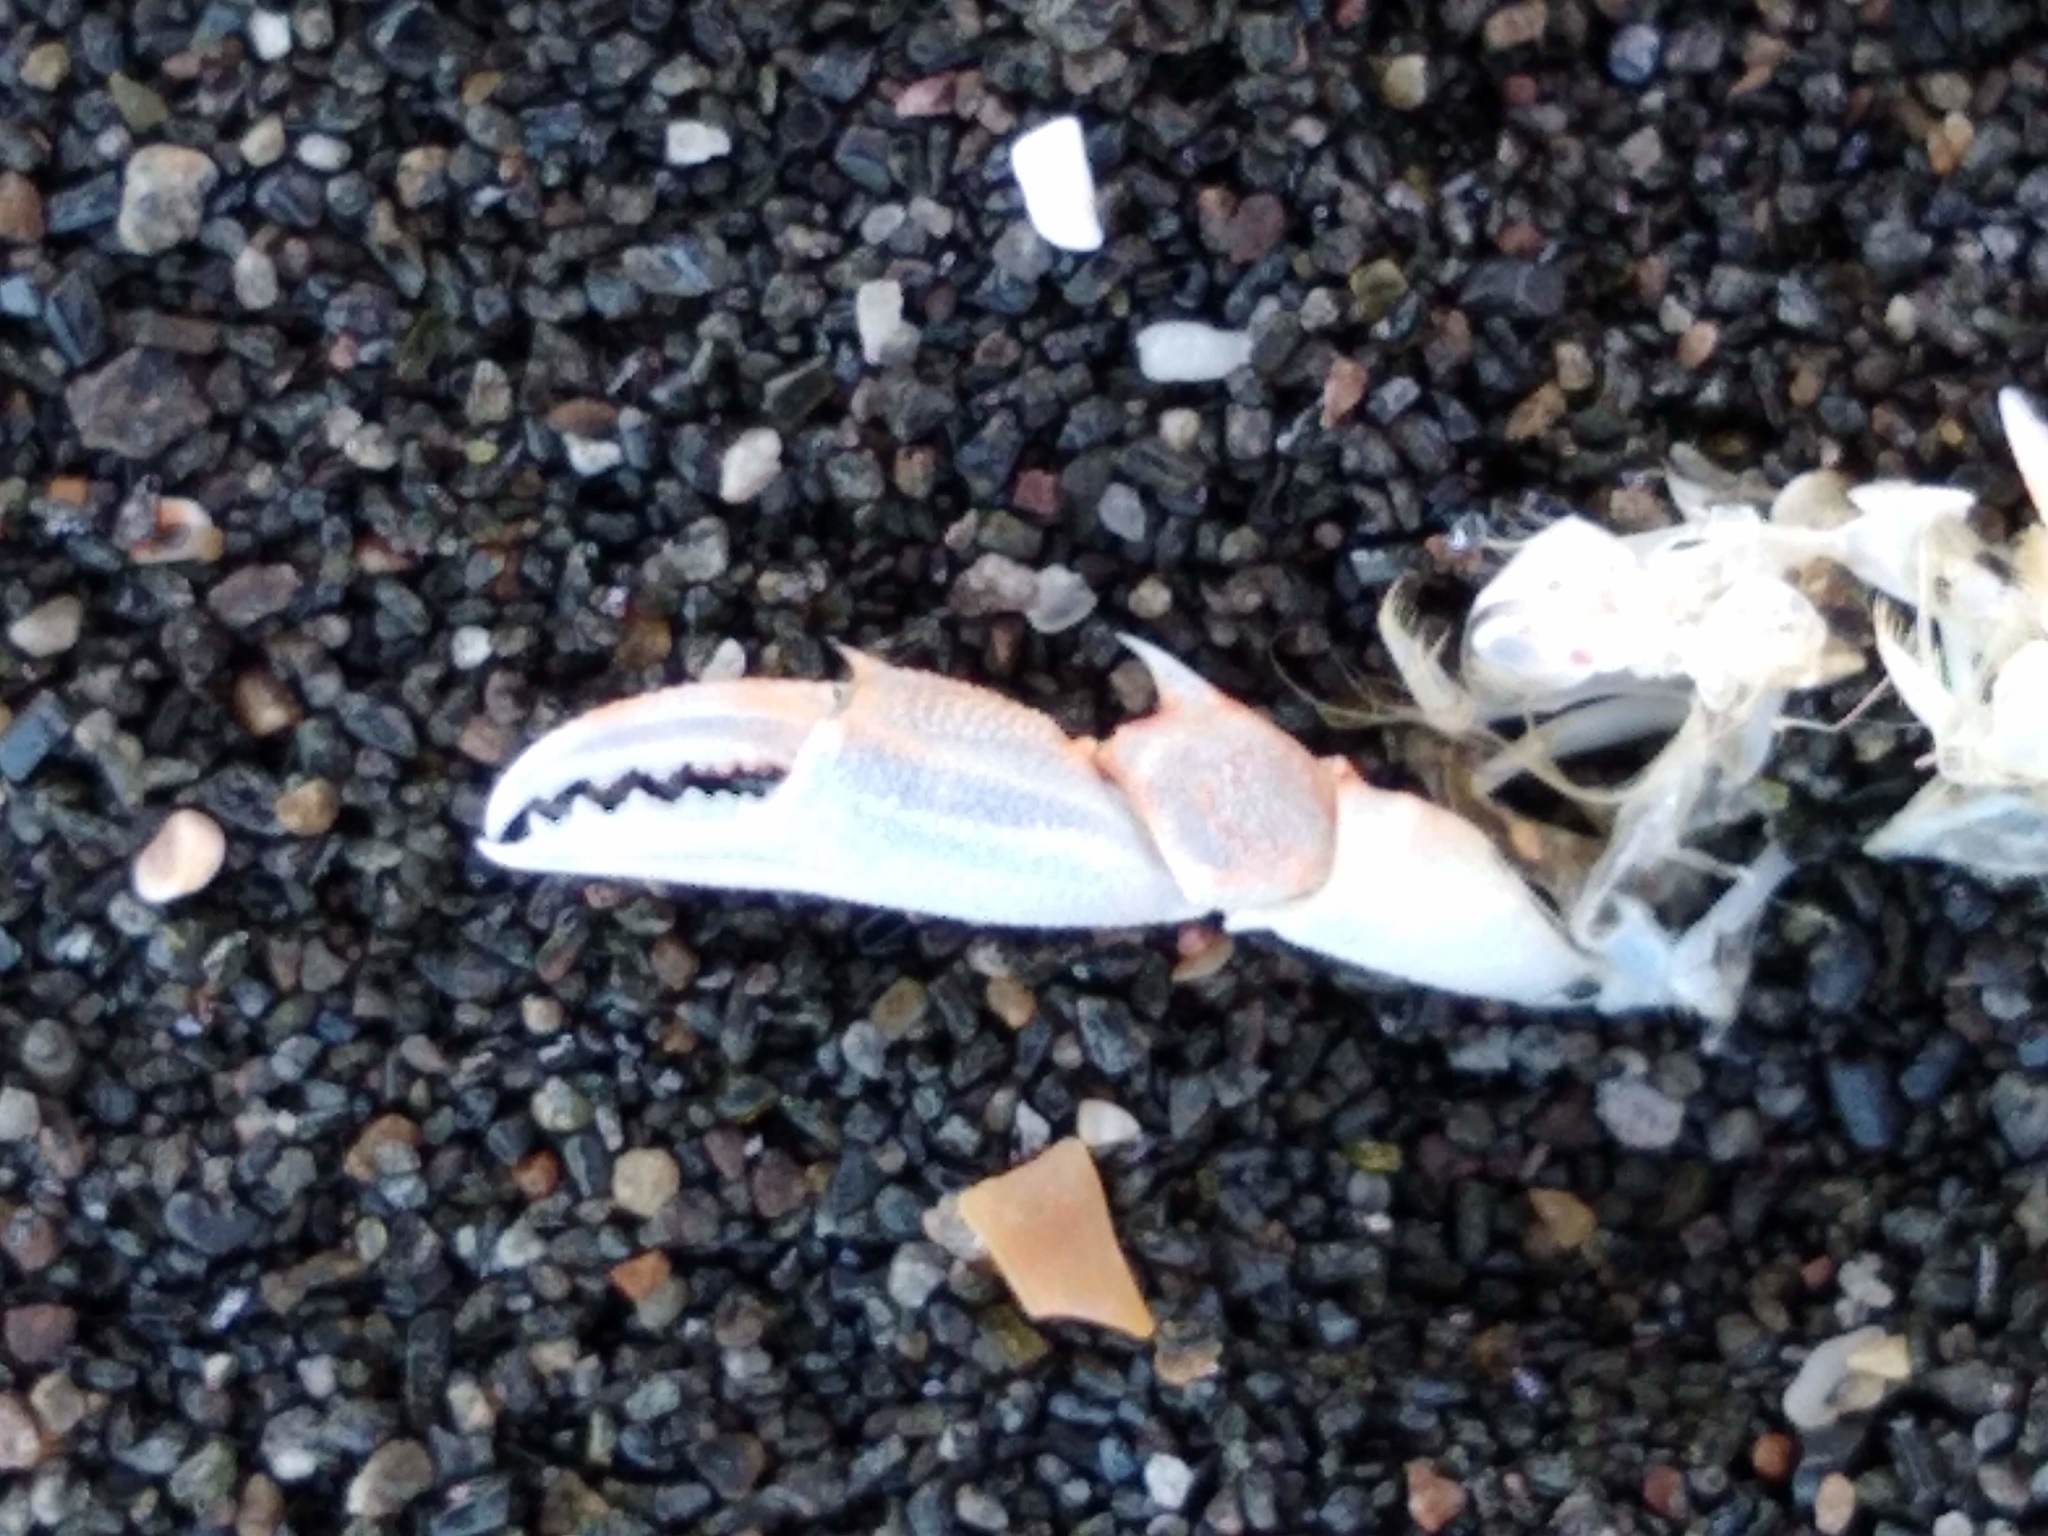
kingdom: Animalia
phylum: Arthropoda
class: Malacostraca
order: Decapoda
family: Ovalipidae
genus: Ovalipes
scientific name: Ovalipes catharus
